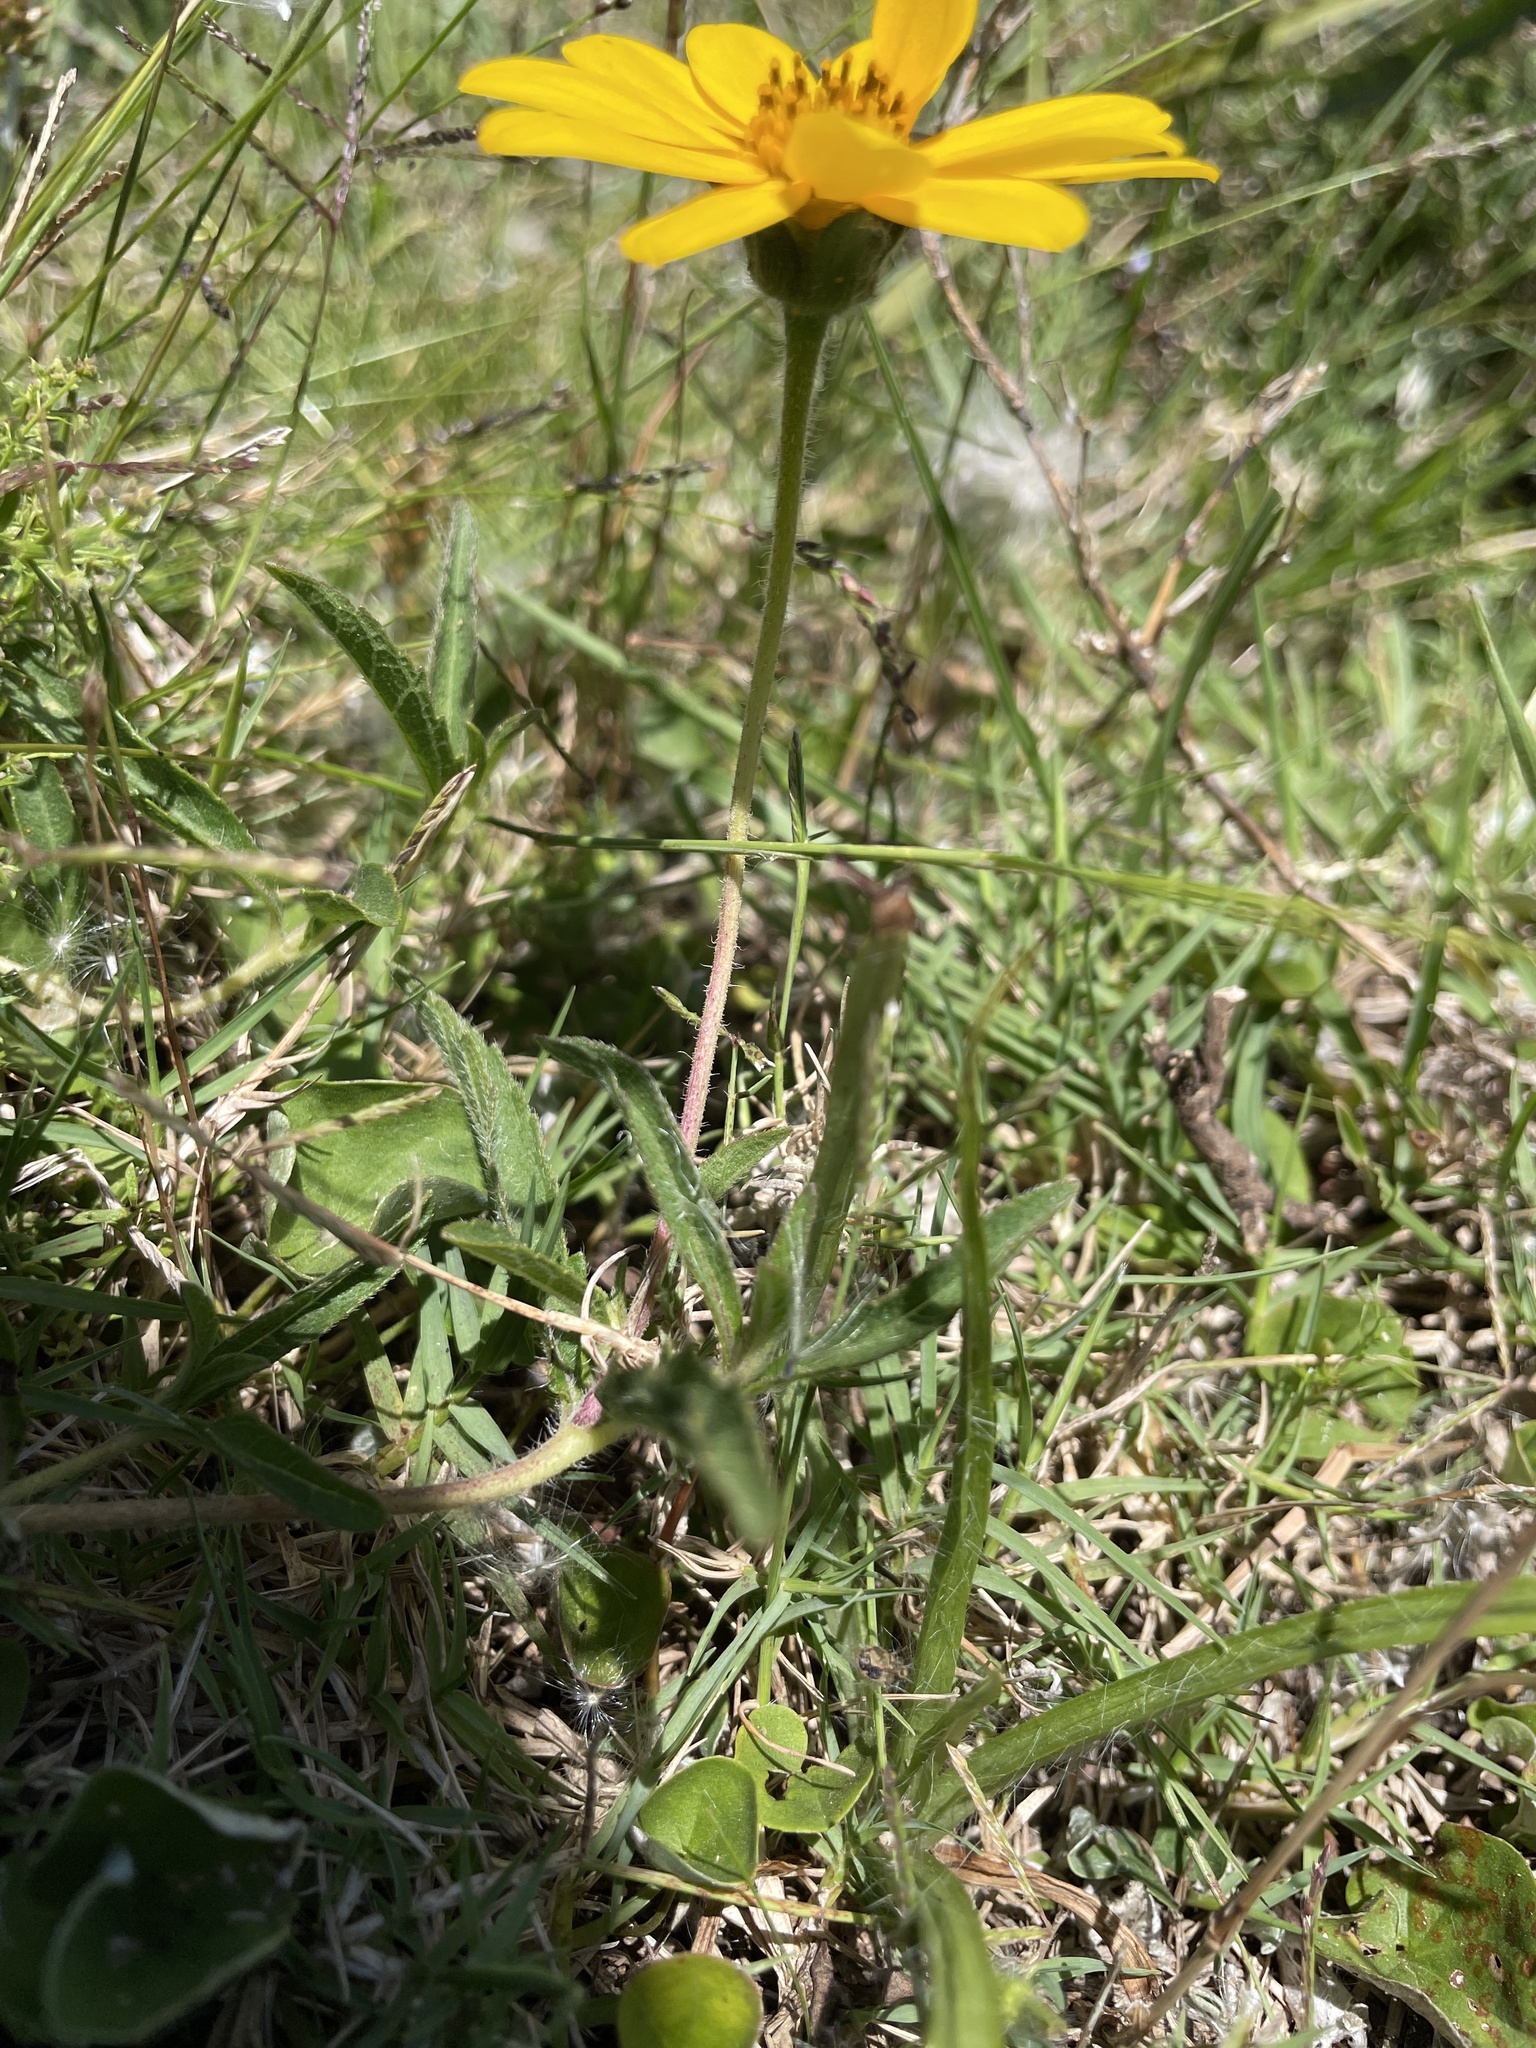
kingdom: Plantae
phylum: Tracheophyta
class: Magnoliopsida
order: Asterales
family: Asteraceae
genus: Wedelia
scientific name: Wedelia montevidensis
